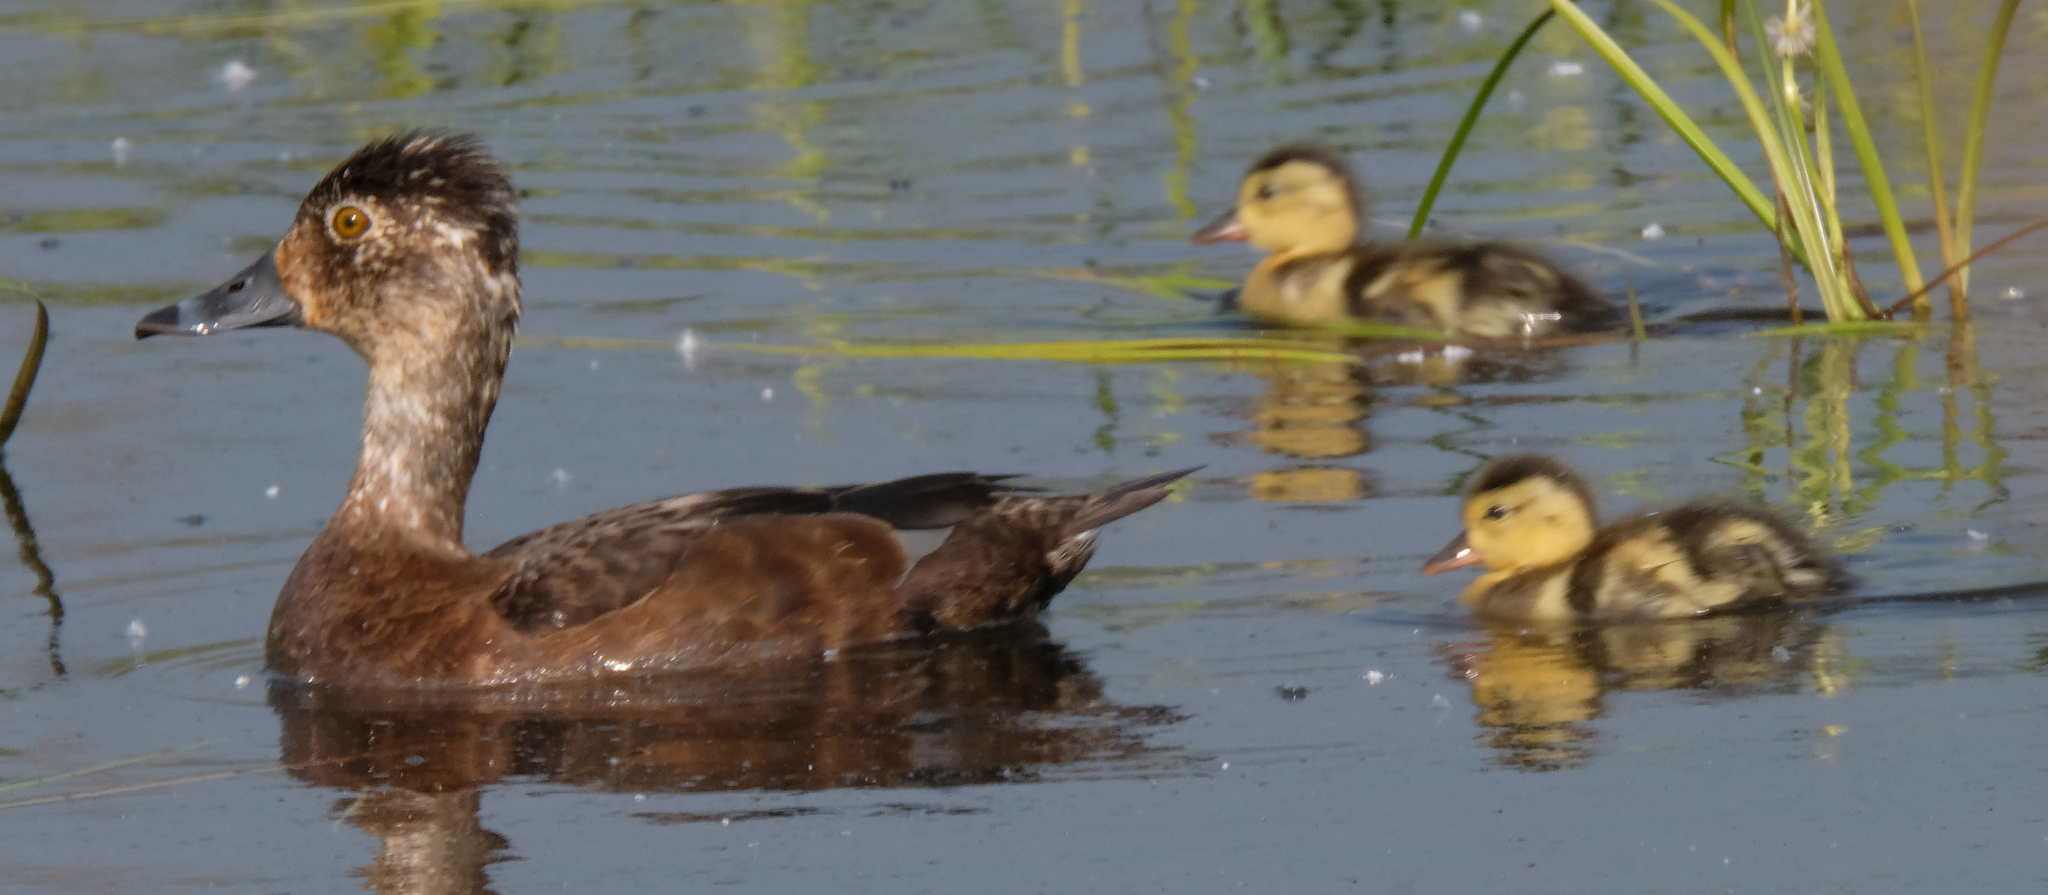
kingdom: Animalia
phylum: Chordata
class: Aves
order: Anseriformes
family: Anatidae
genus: Aythya
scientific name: Aythya collaris
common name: Ring-necked duck
